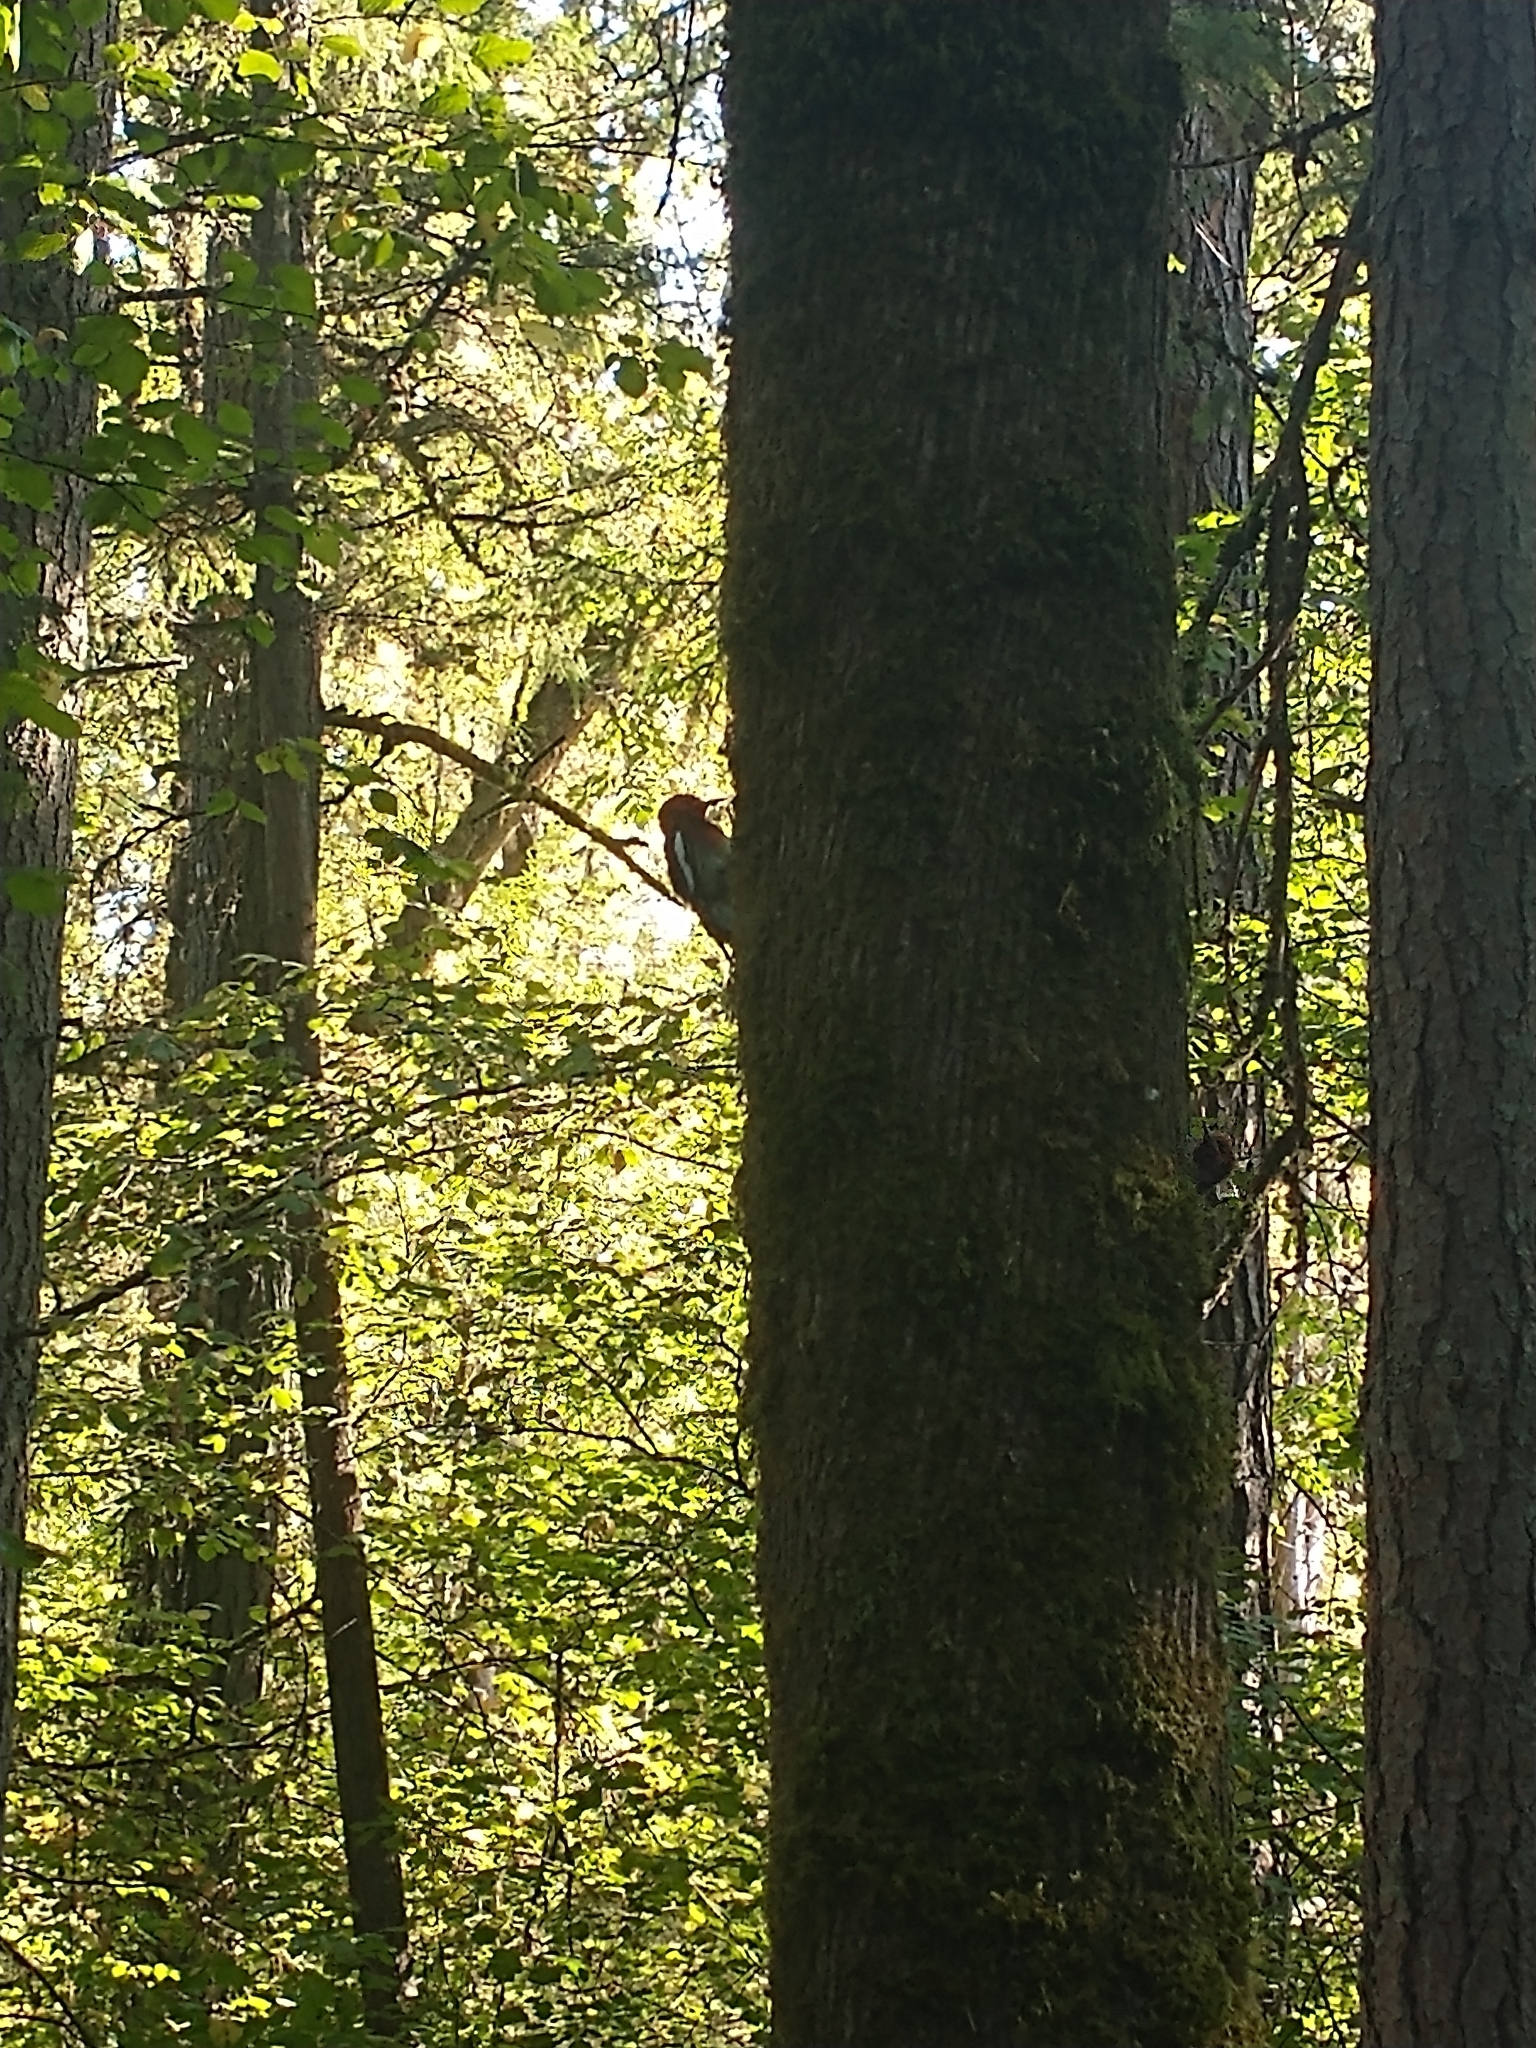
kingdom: Animalia
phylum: Chordata
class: Aves
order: Piciformes
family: Picidae
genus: Sphyrapicus
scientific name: Sphyrapicus ruber
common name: Red-breasted sapsucker
